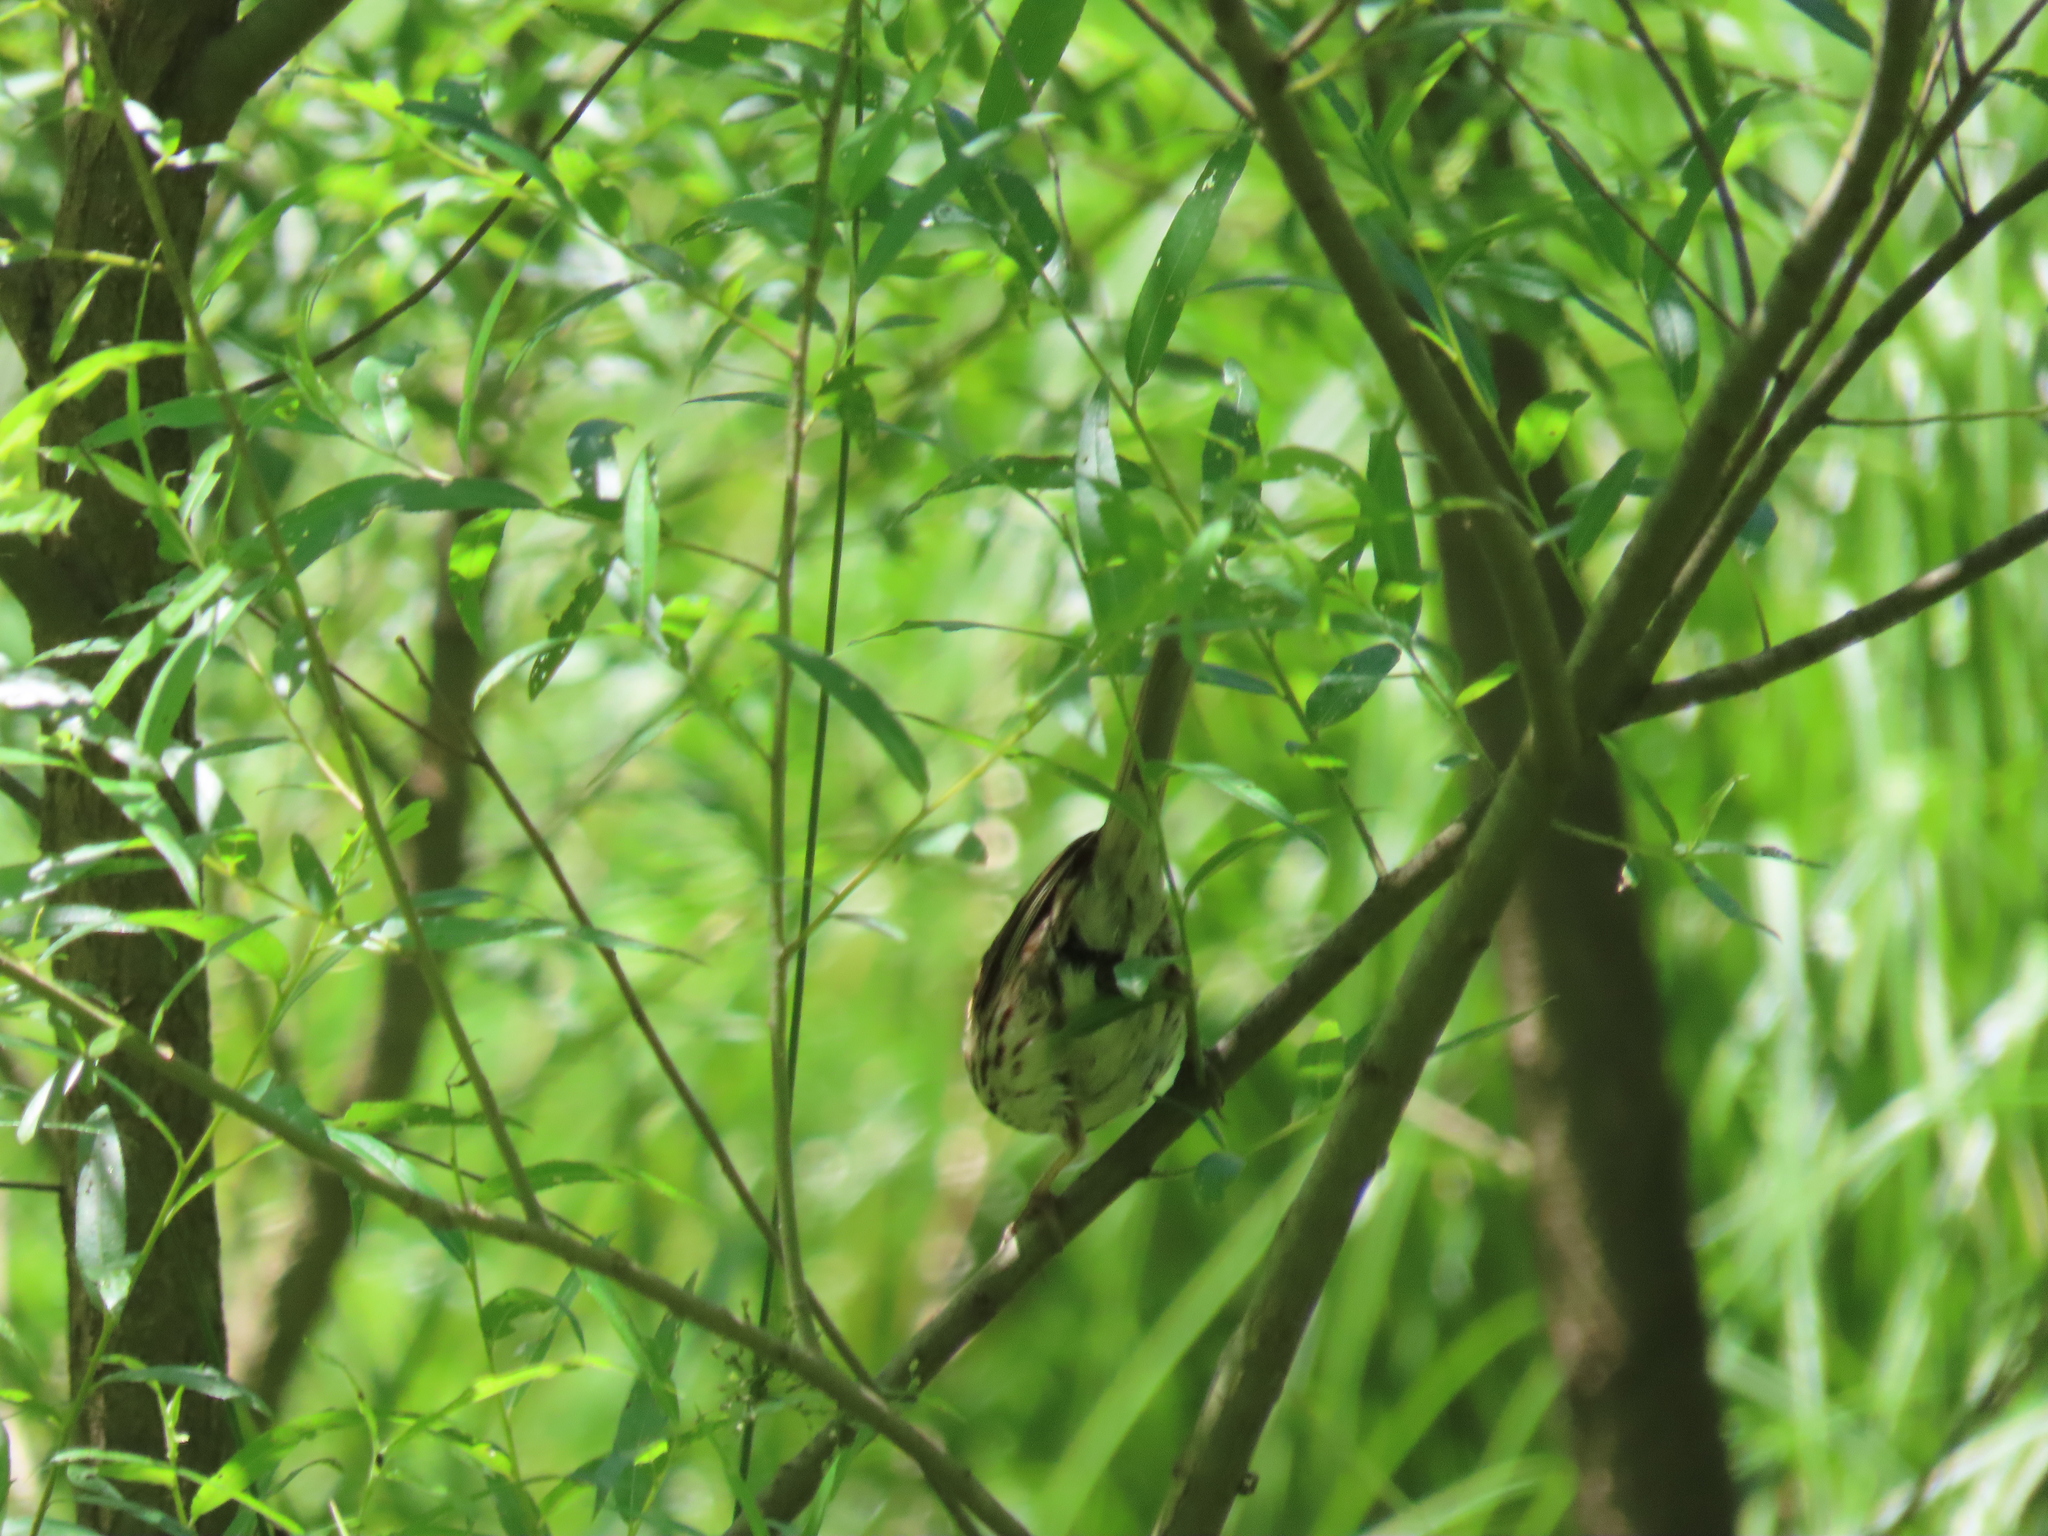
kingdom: Animalia
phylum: Chordata
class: Aves
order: Passeriformes
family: Passerellidae
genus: Melospiza
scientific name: Melospiza melodia
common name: Song sparrow
